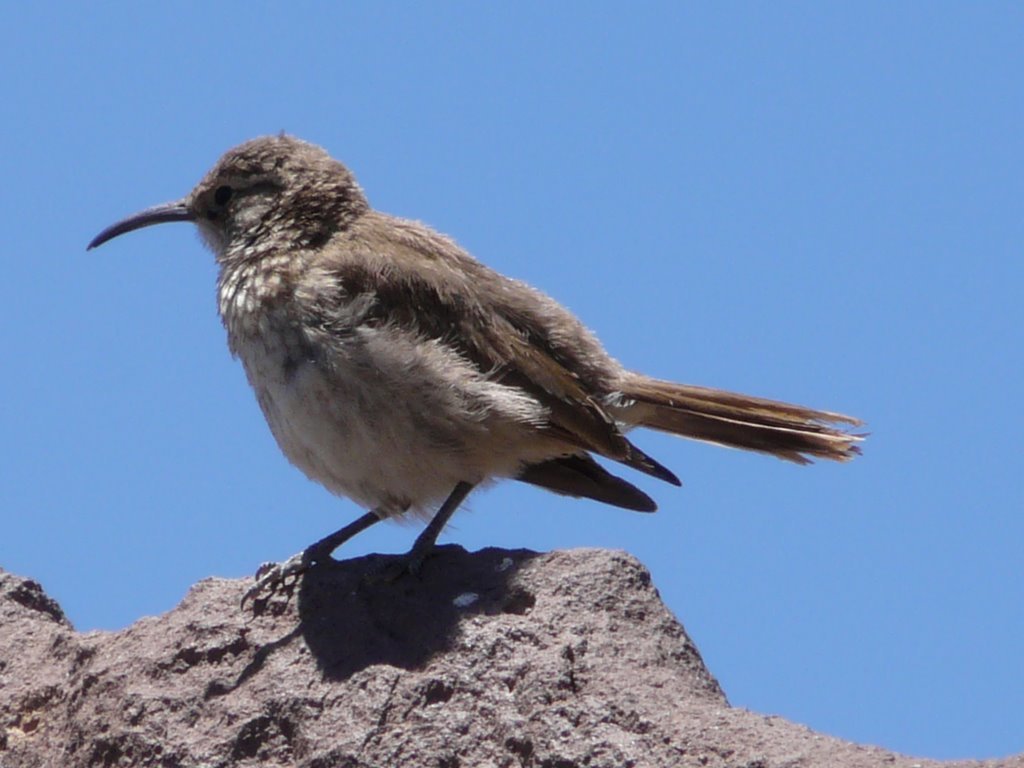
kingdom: Animalia
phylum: Chordata
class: Aves
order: Passeriformes
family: Furnariidae
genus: Upucerthia
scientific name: Upucerthia dumetaria
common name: Scale-throated earthcreeper
